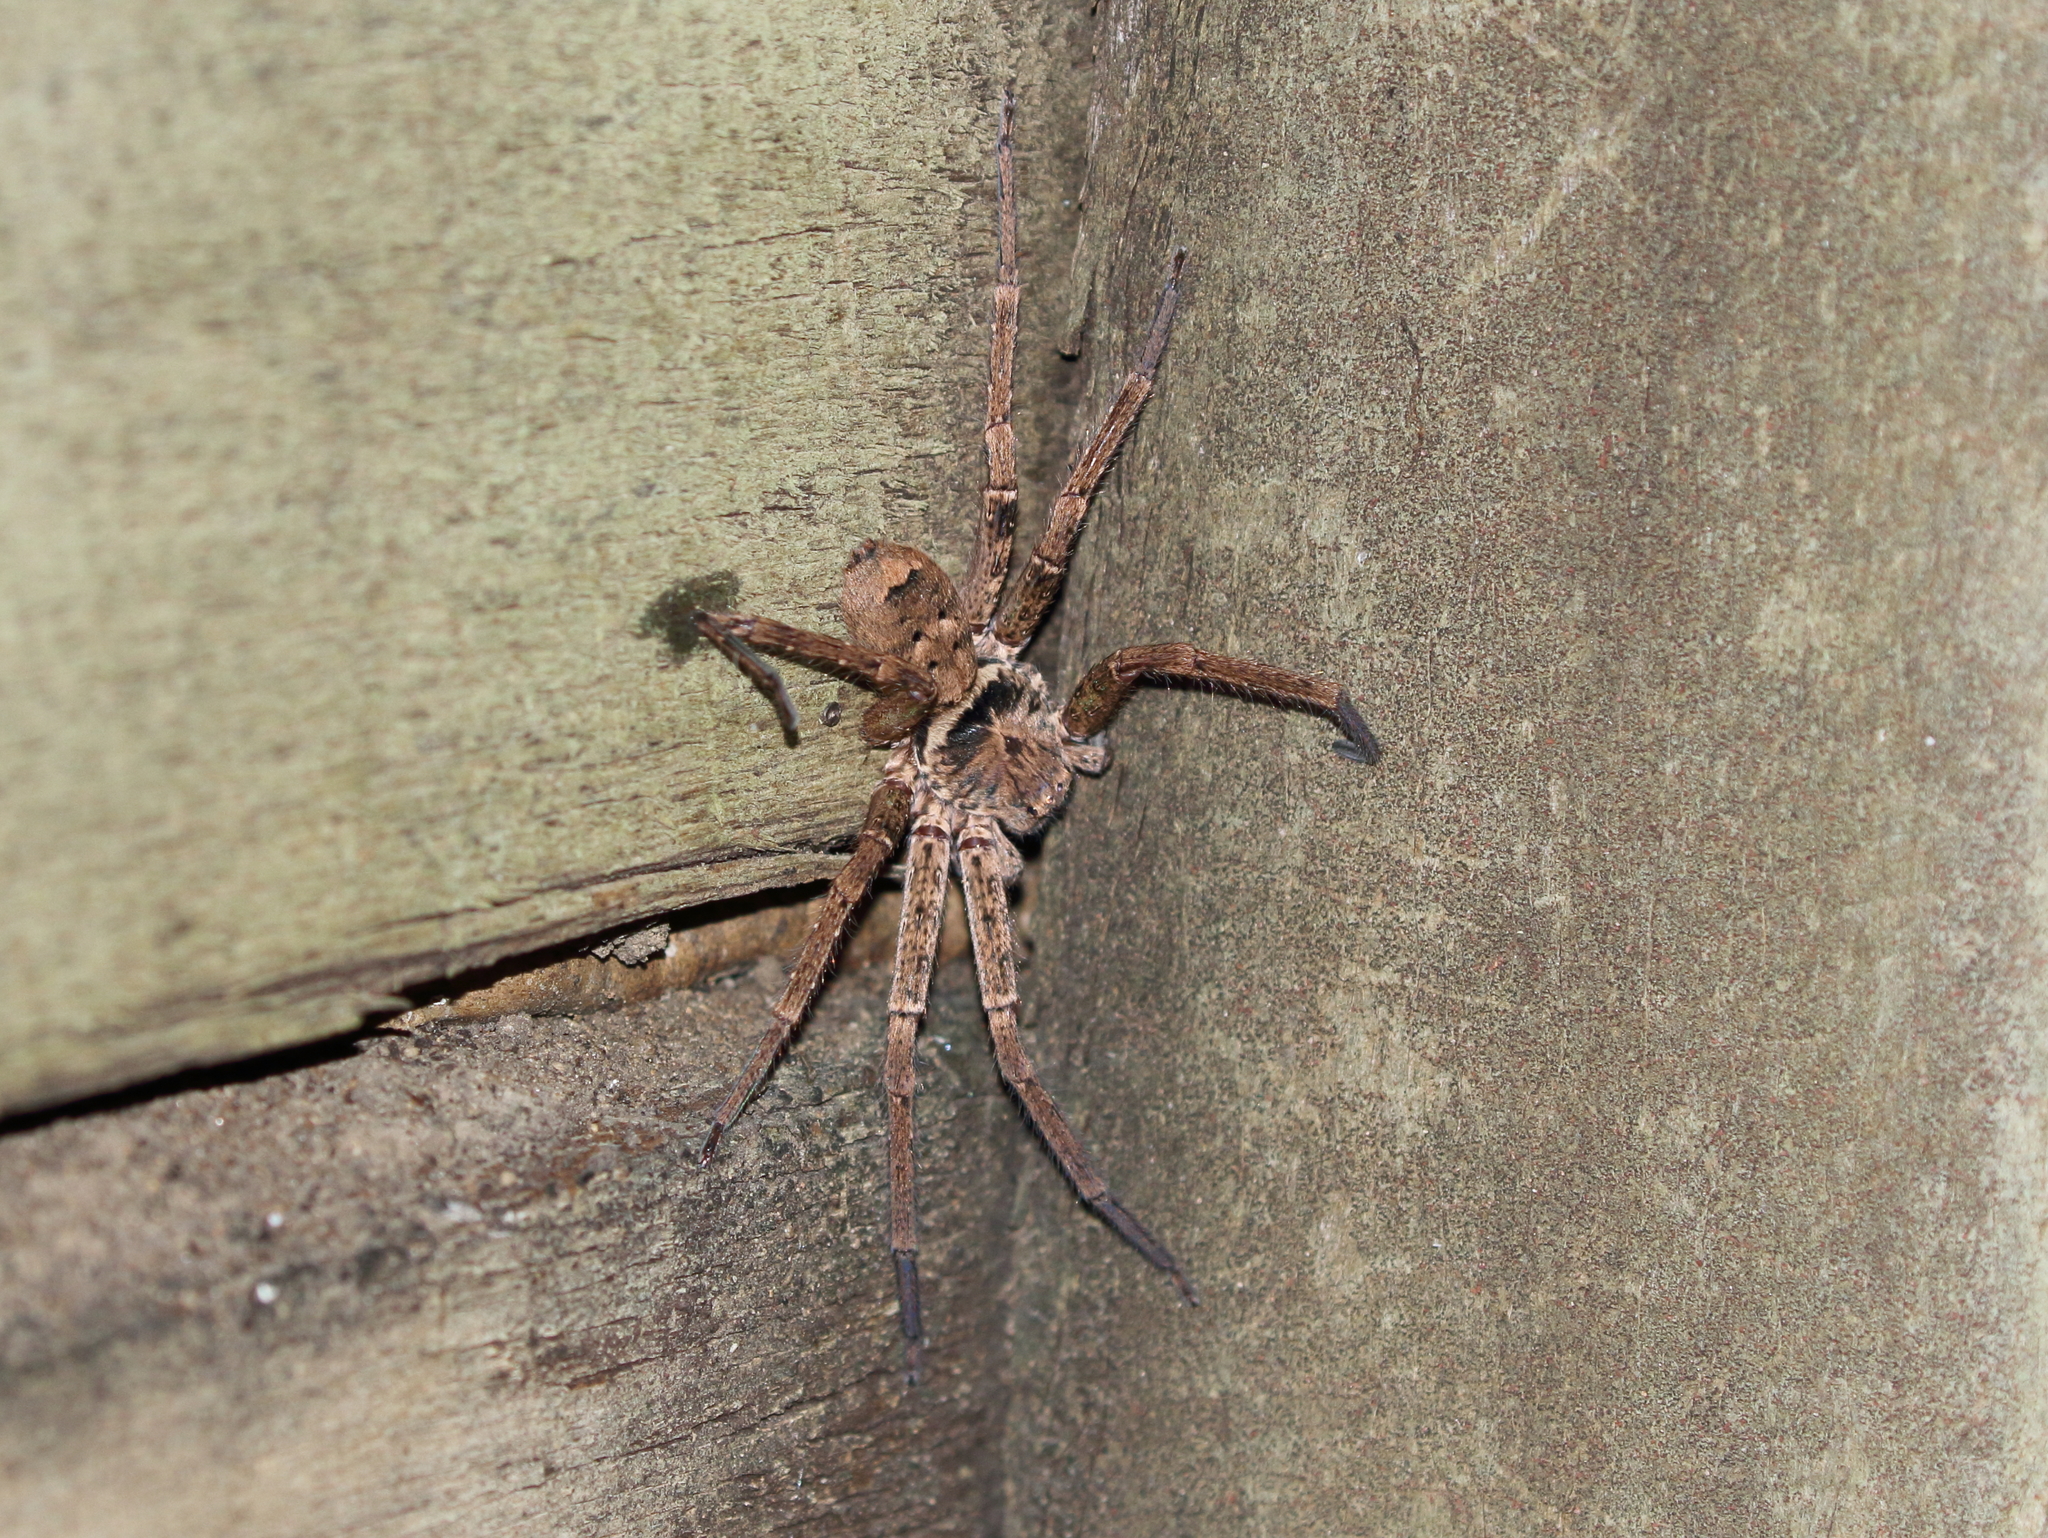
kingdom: Animalia
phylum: Arthropoda
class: Arachnida
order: Araneae
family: Sparassidae
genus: Heteropoda
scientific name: Heteropoda jugulans
